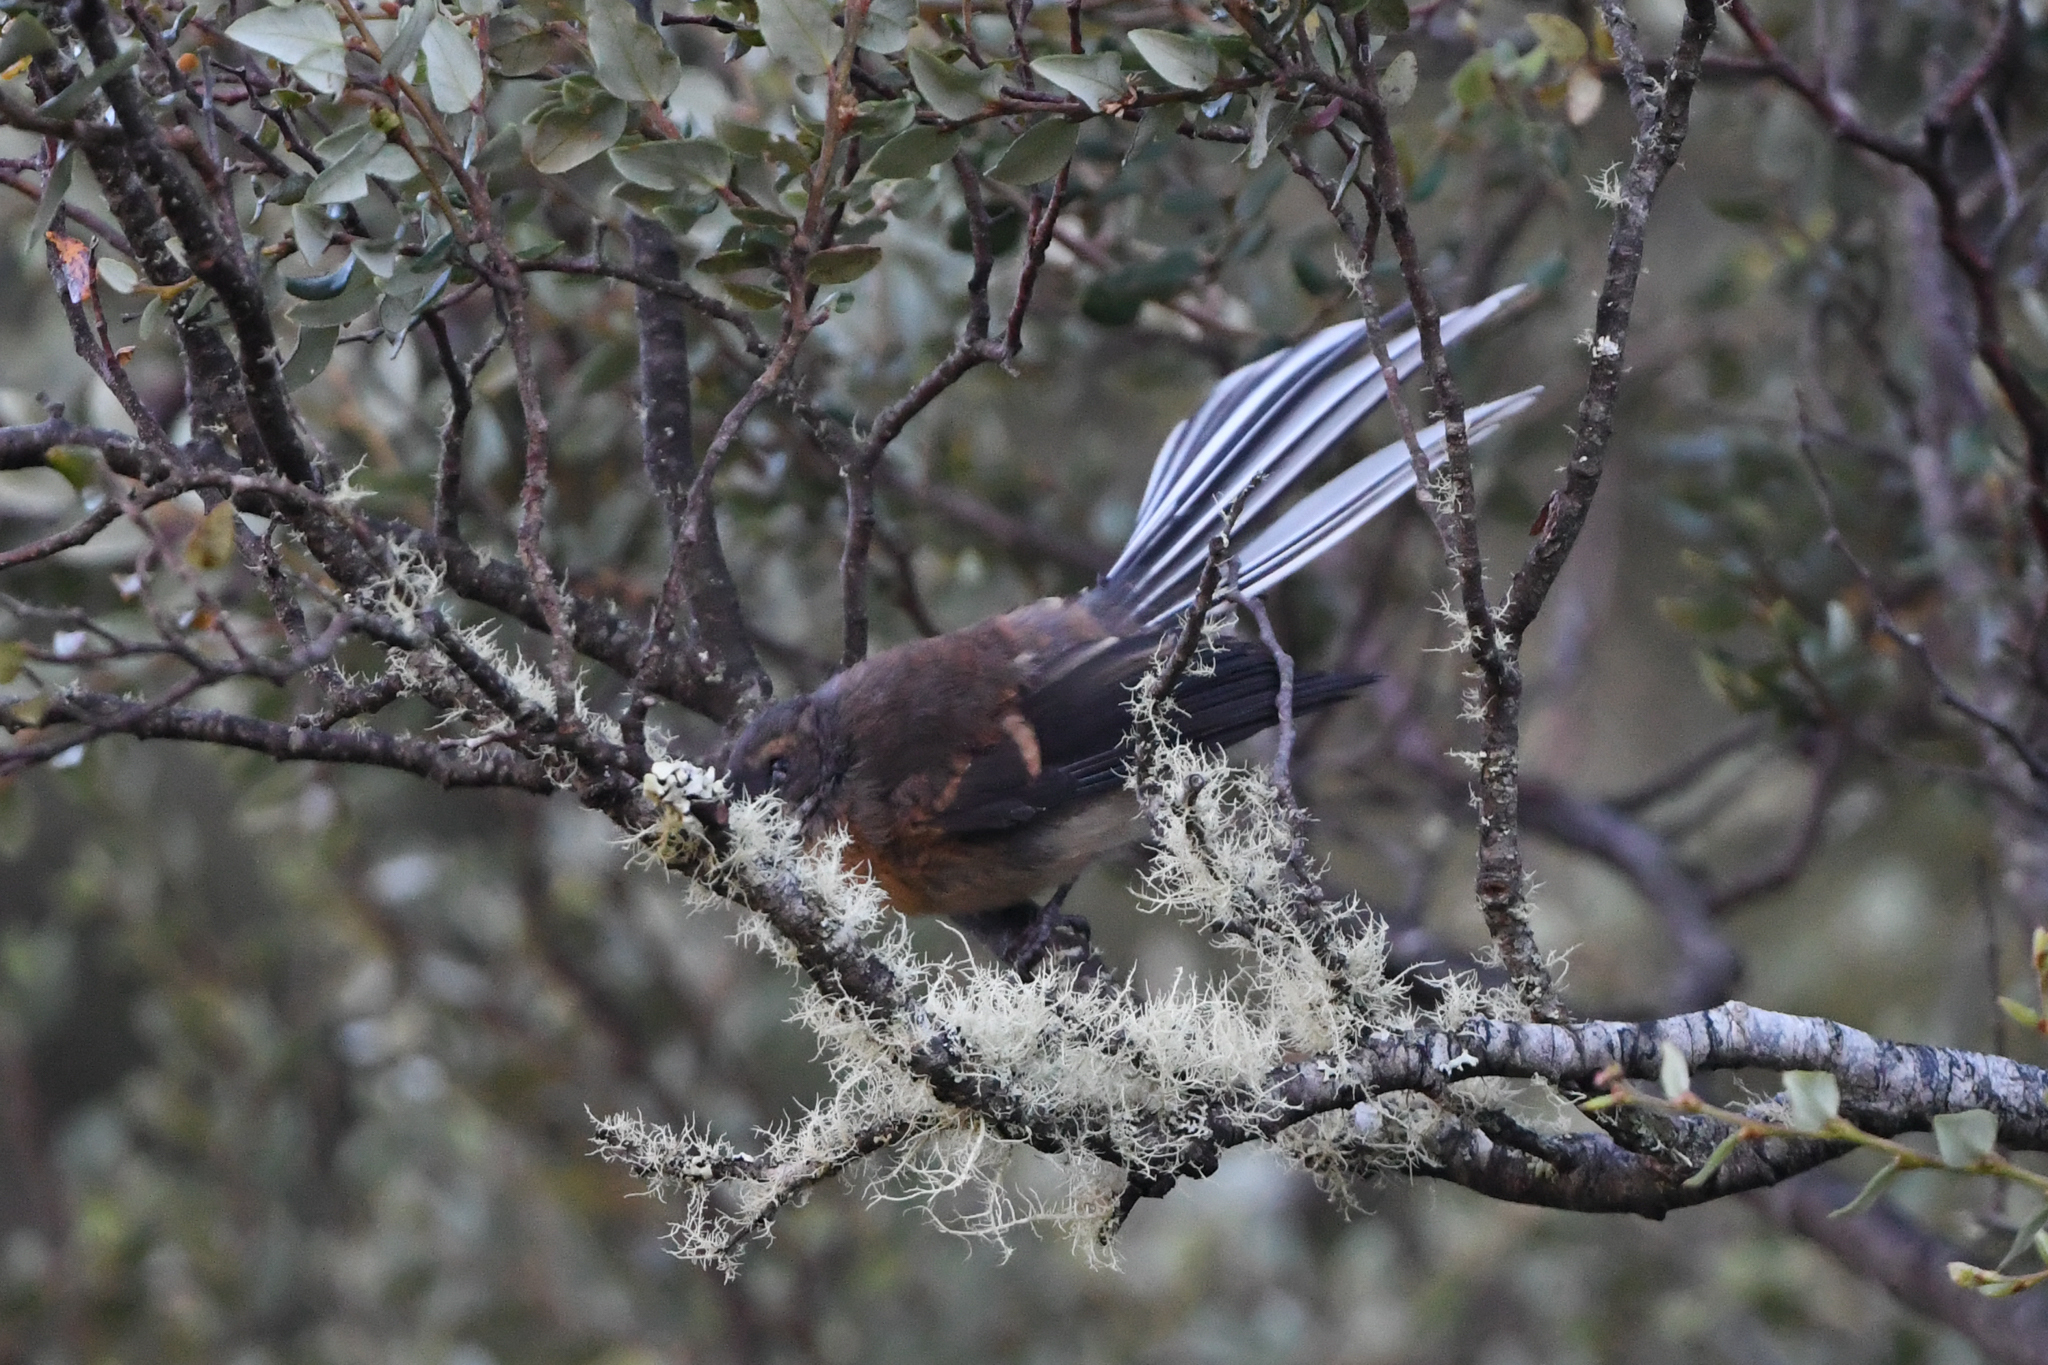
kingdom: Animalia
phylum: Chordata
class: Aves
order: Passeriformes
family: Rhipiduridae
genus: Rhipidura
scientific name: Rhipidura fuliginosa
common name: New zealand fantail
